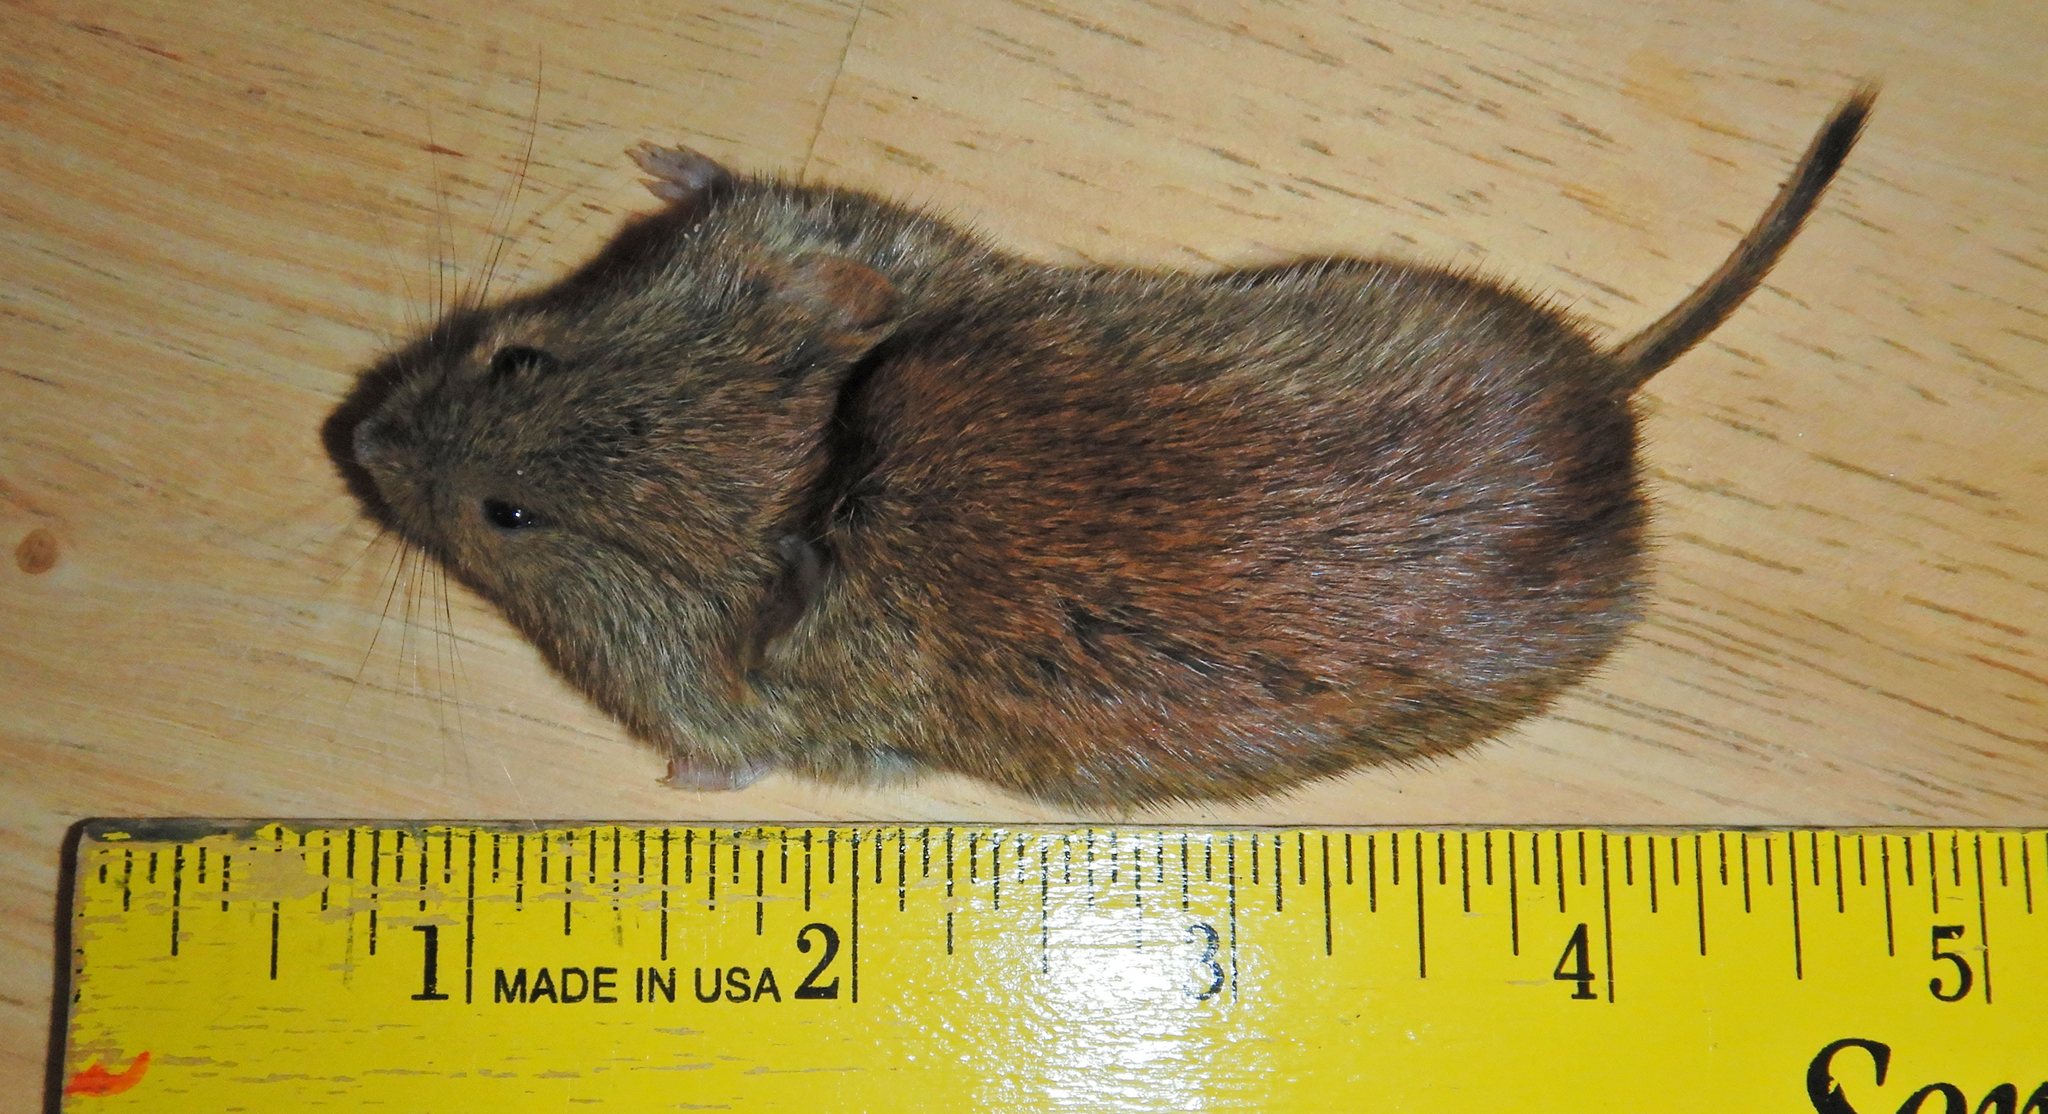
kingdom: Animalia
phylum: Chordata
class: Mammalia
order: Rodentia
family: Cricetidae
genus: Myodes
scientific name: Myodes gapperi
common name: Southern red-backed vole
